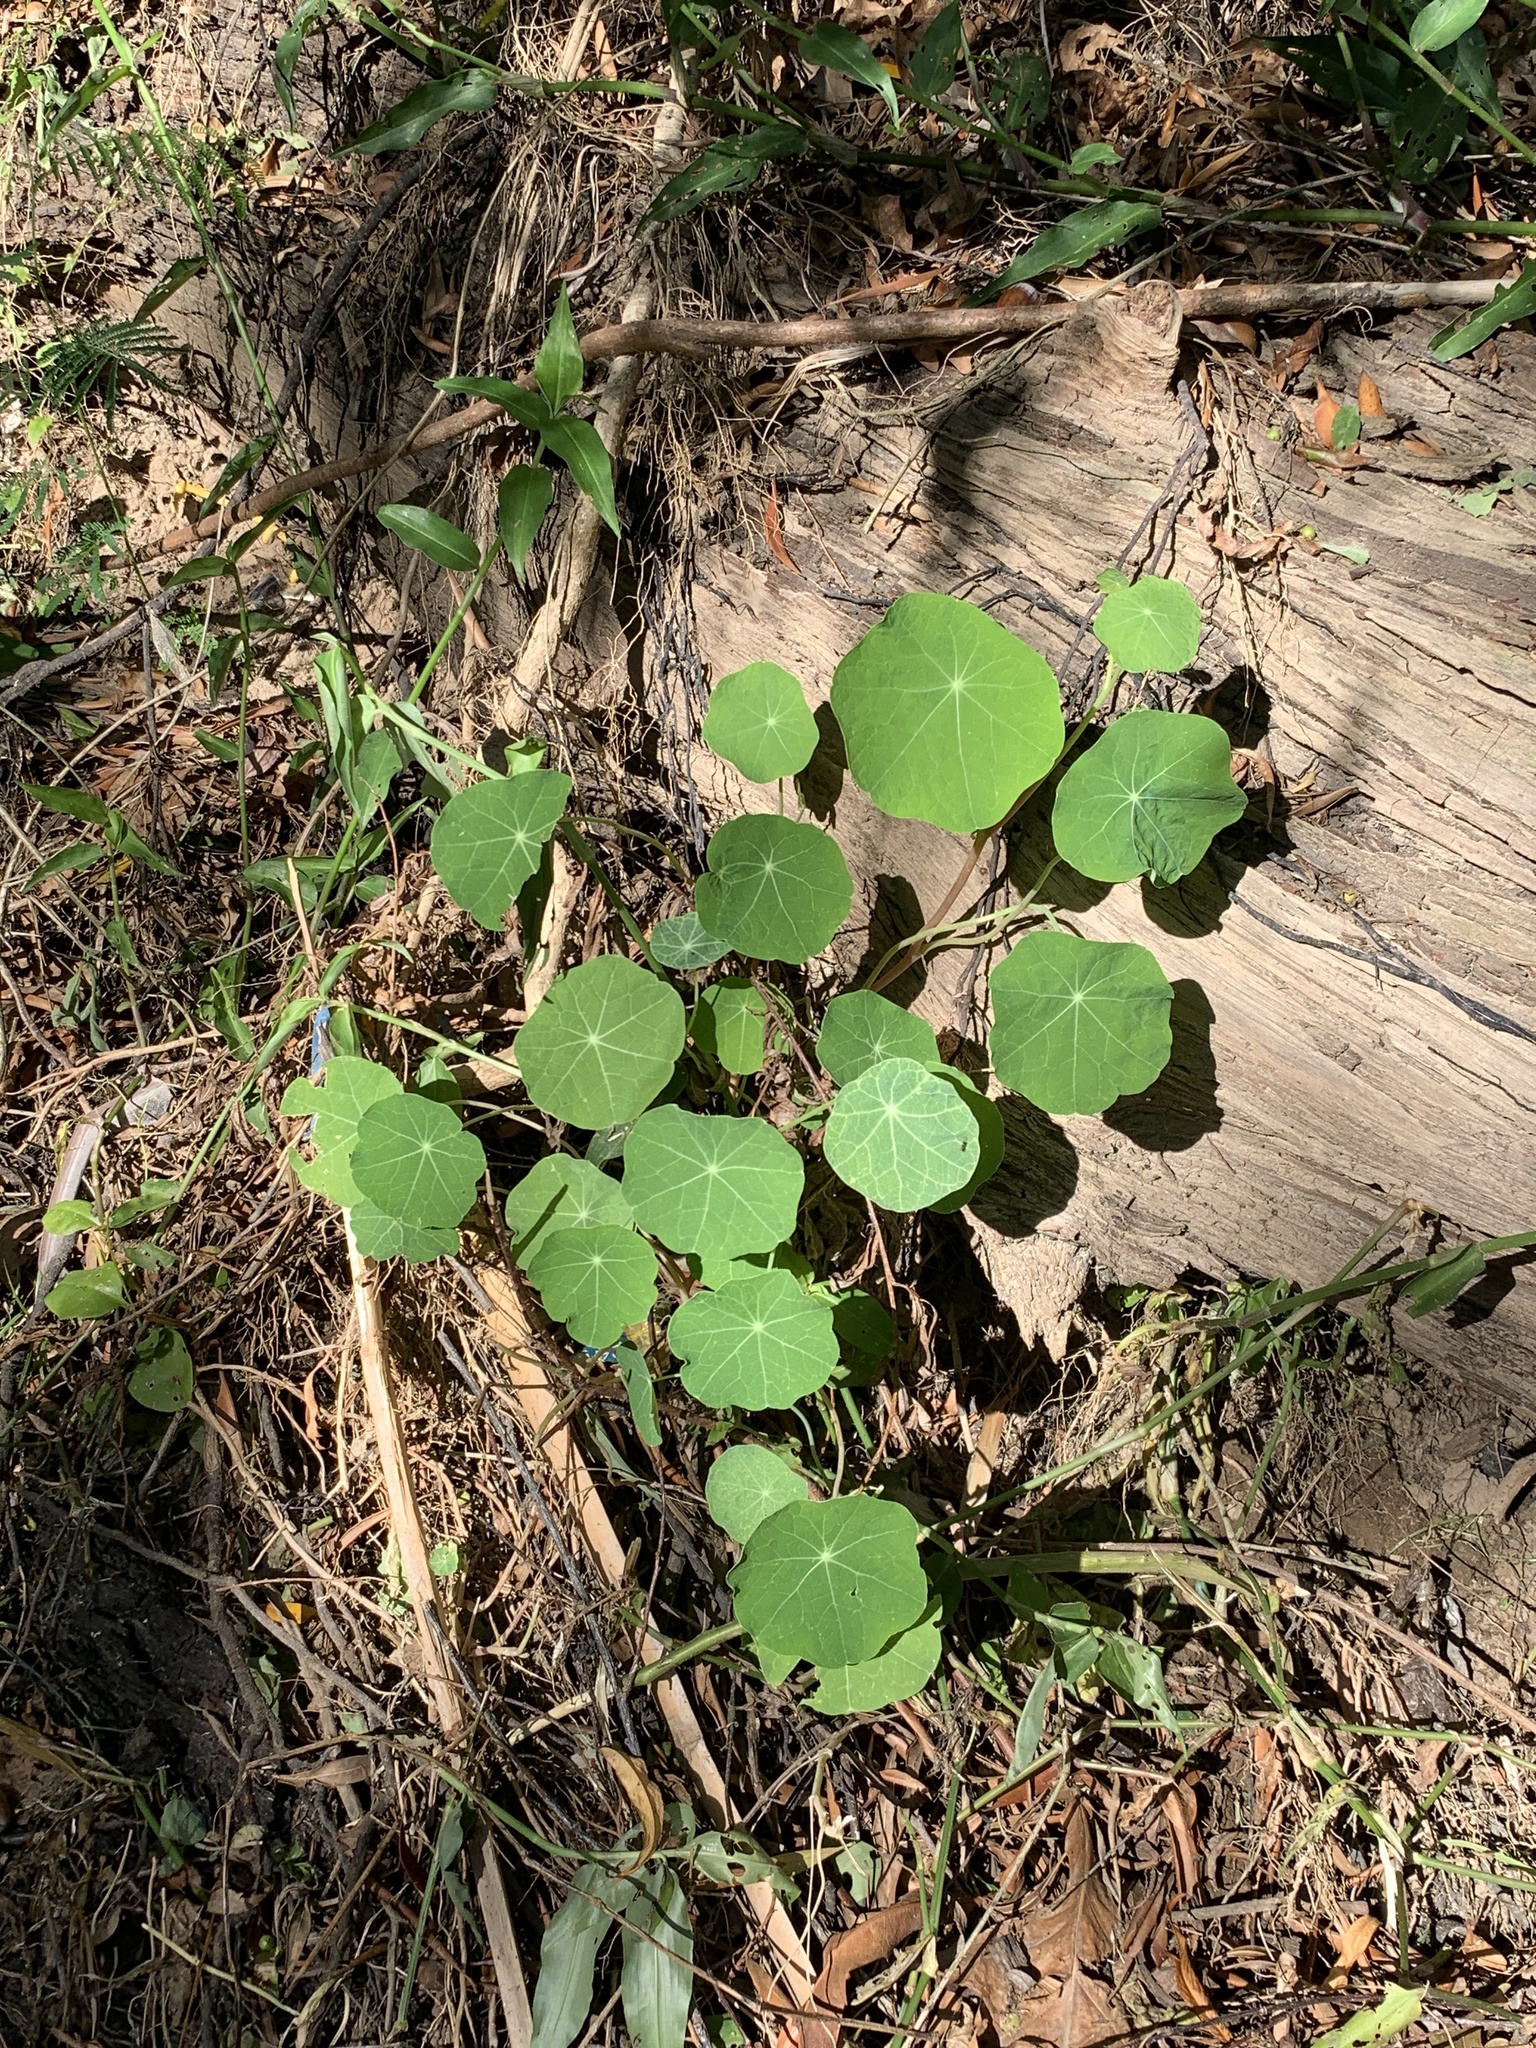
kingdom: Plantae
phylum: Tracheophyta
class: Magnoliopsida
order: Brassicales
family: Tropaeolaceae
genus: Tropaeolum
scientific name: Tropaeolum majus
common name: Nasturtium
